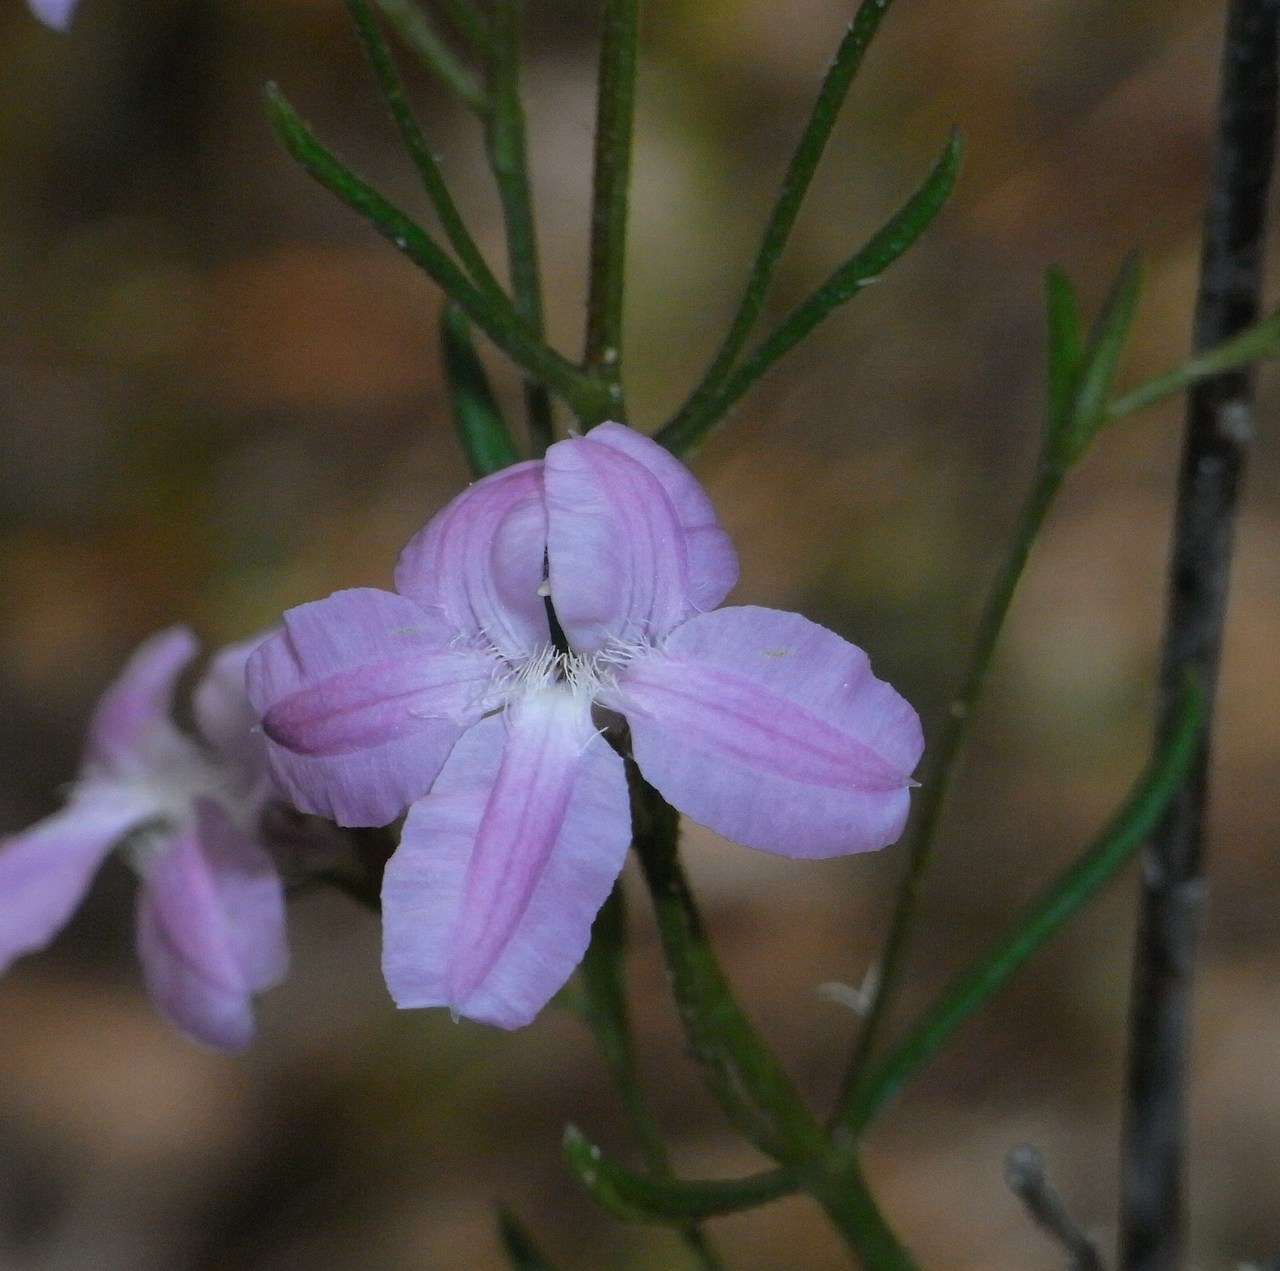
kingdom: Plantae
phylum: Tracheophyta
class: Magnoliopsida
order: Asterales
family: Goodeniaceae
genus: Goodenia
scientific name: Goodenia barbata
